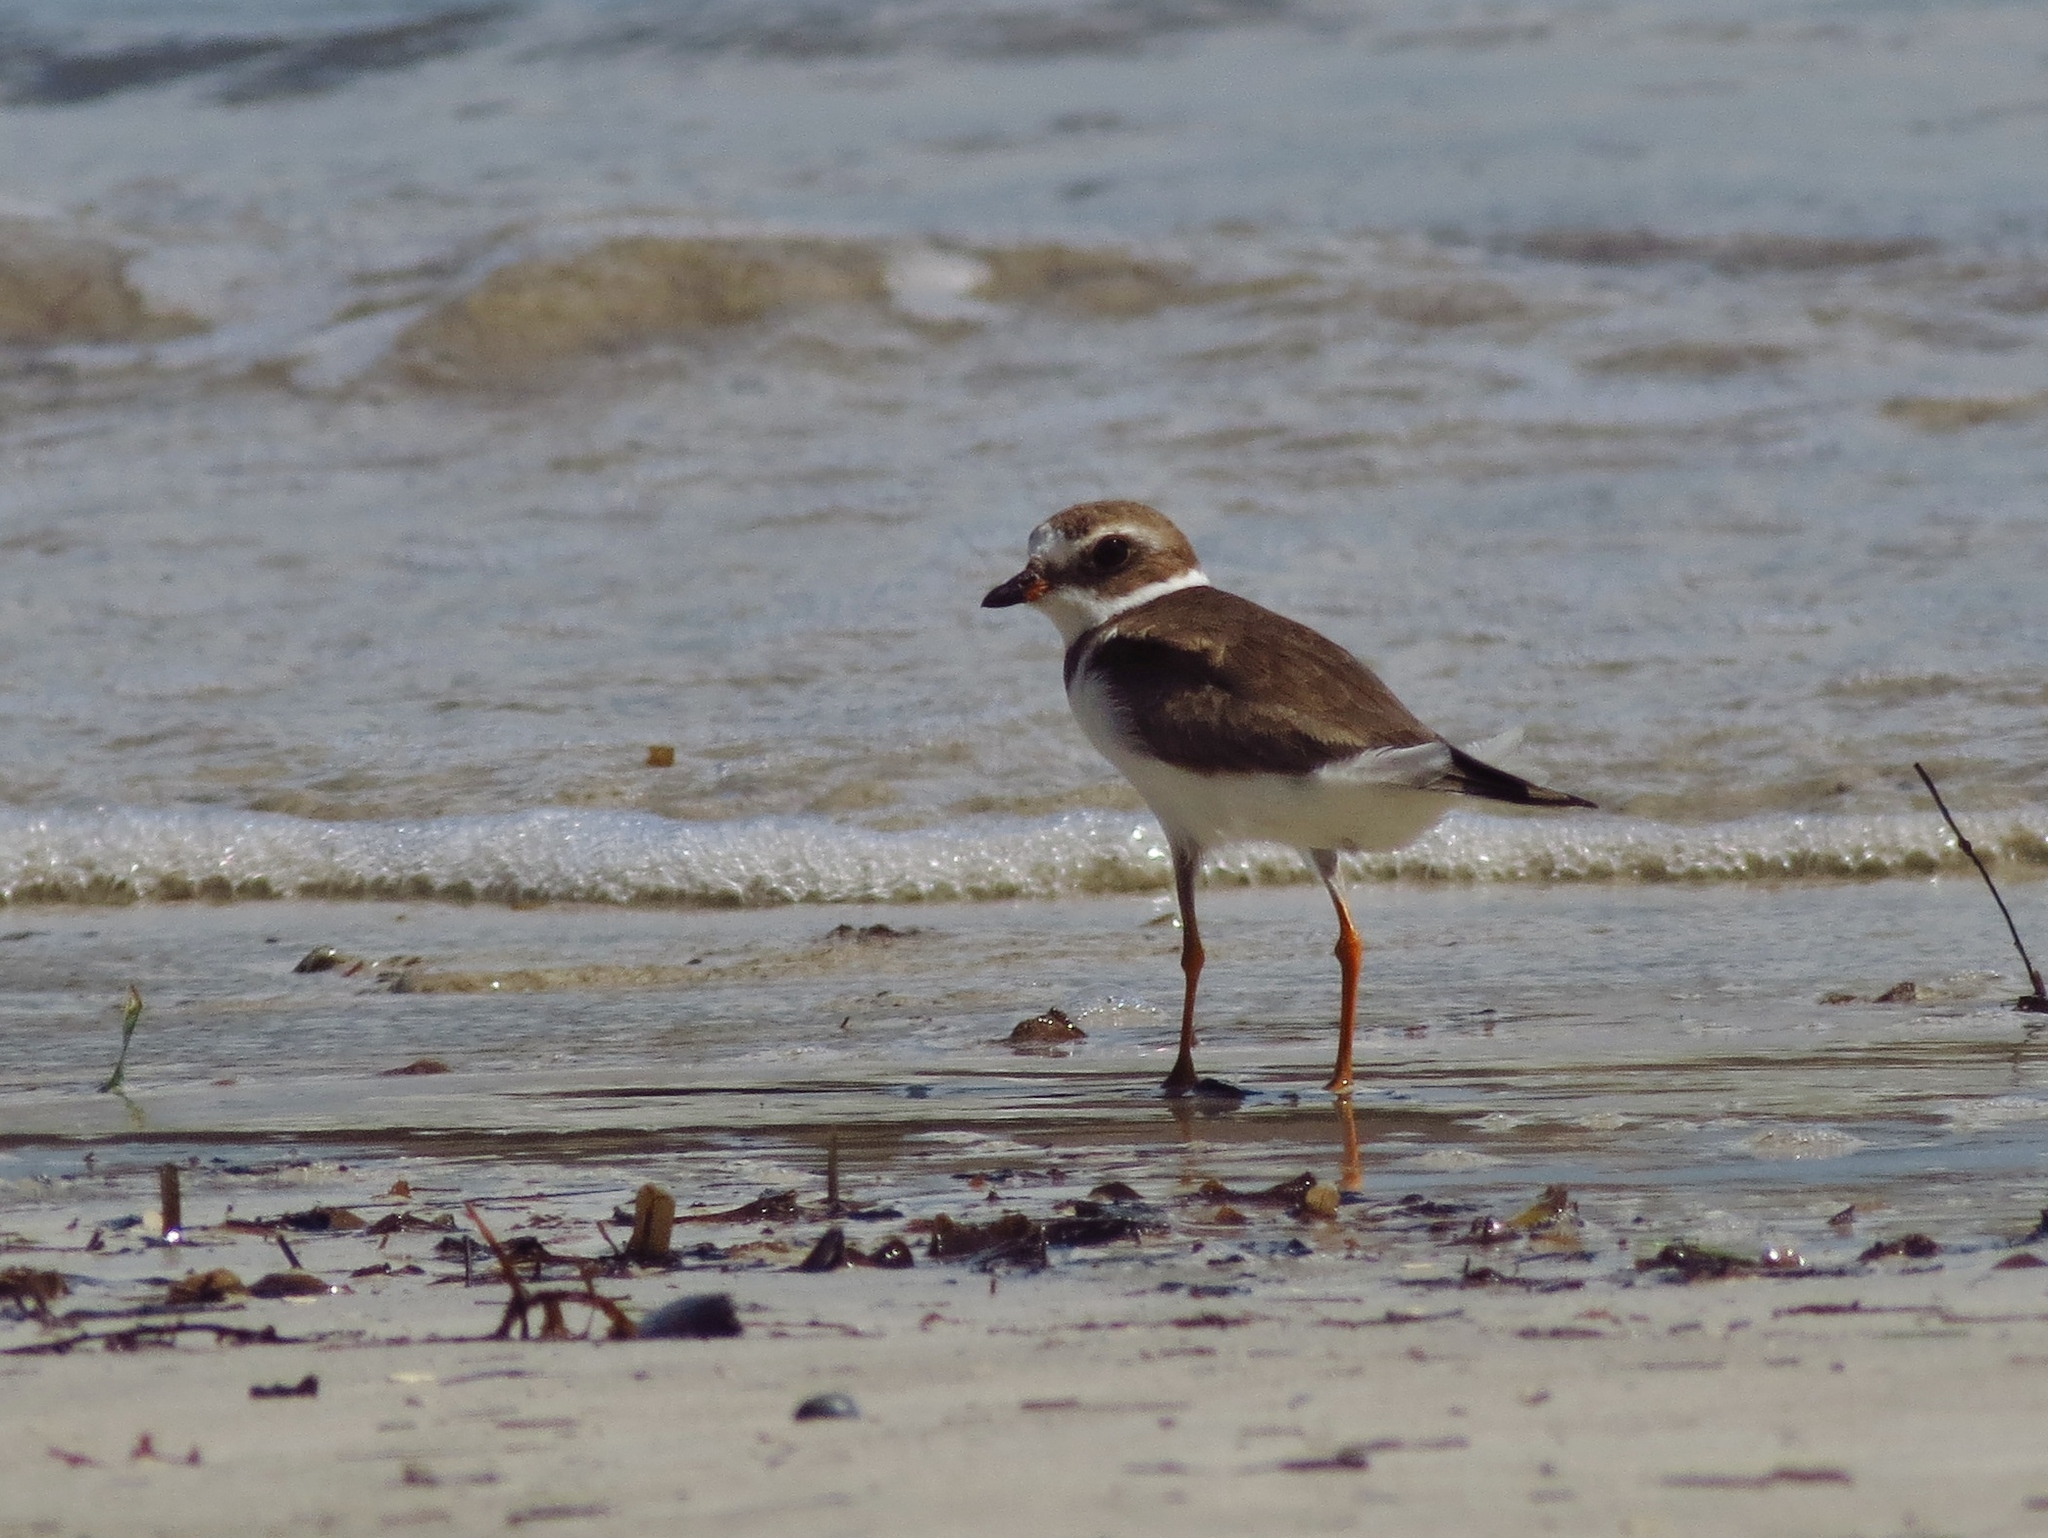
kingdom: Animalia
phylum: Chordata
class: Aves
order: Charadriiformes
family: Charadriidae
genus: Charadrius
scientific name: Charadrius semipalmatus
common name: Semipalmated plover
